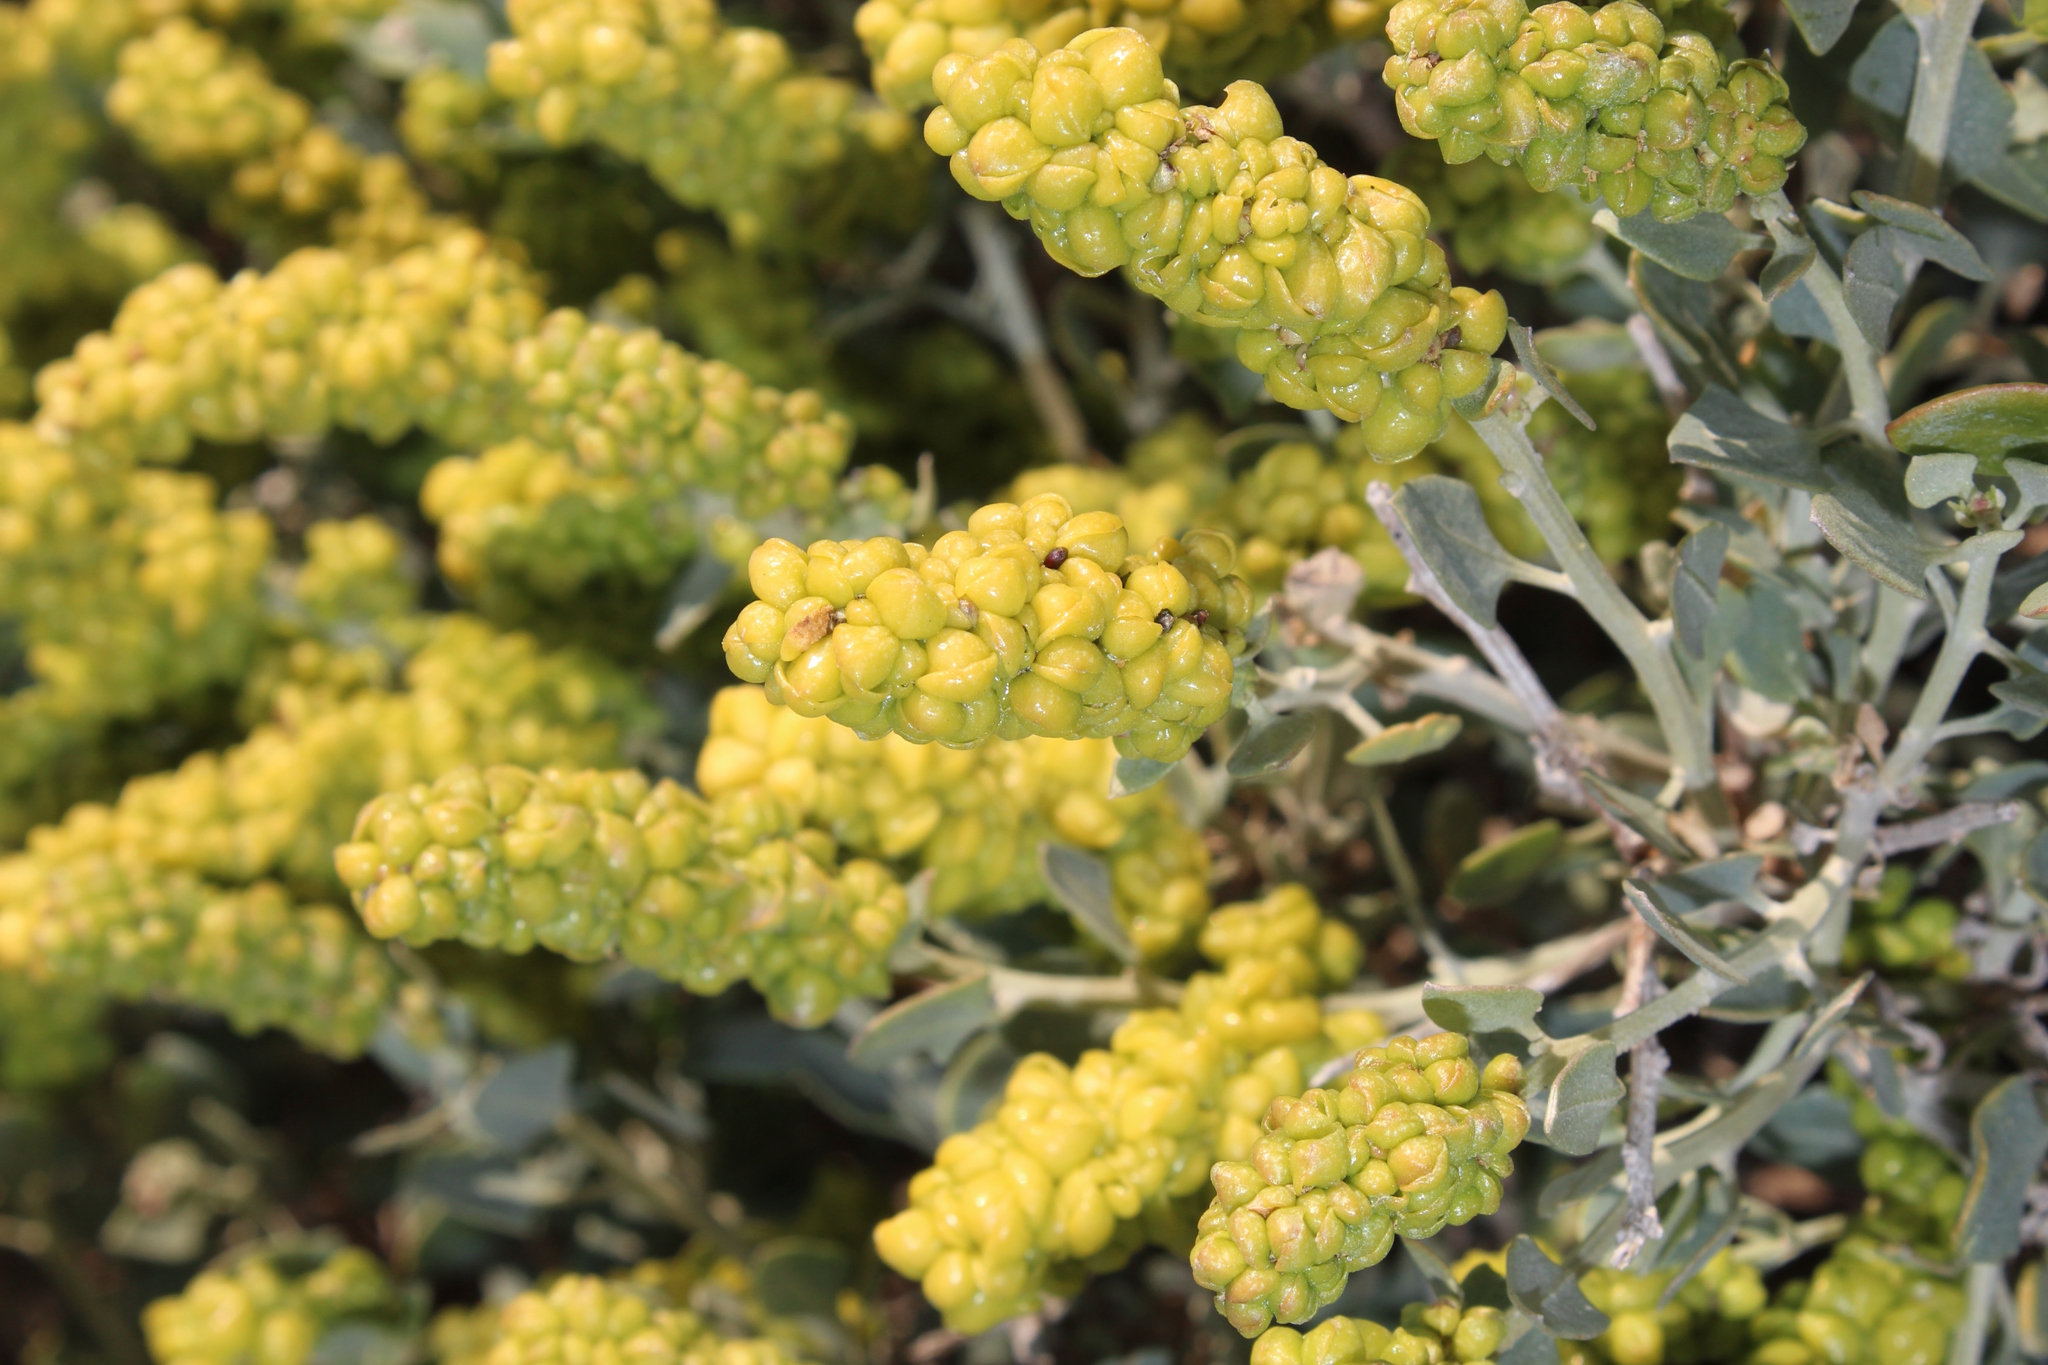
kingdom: Plantae
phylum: Tracheophyta
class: Magnoliopsida
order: Caryophyllales
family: Amaranthaceae
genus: Exomis
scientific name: Exomis albicans
